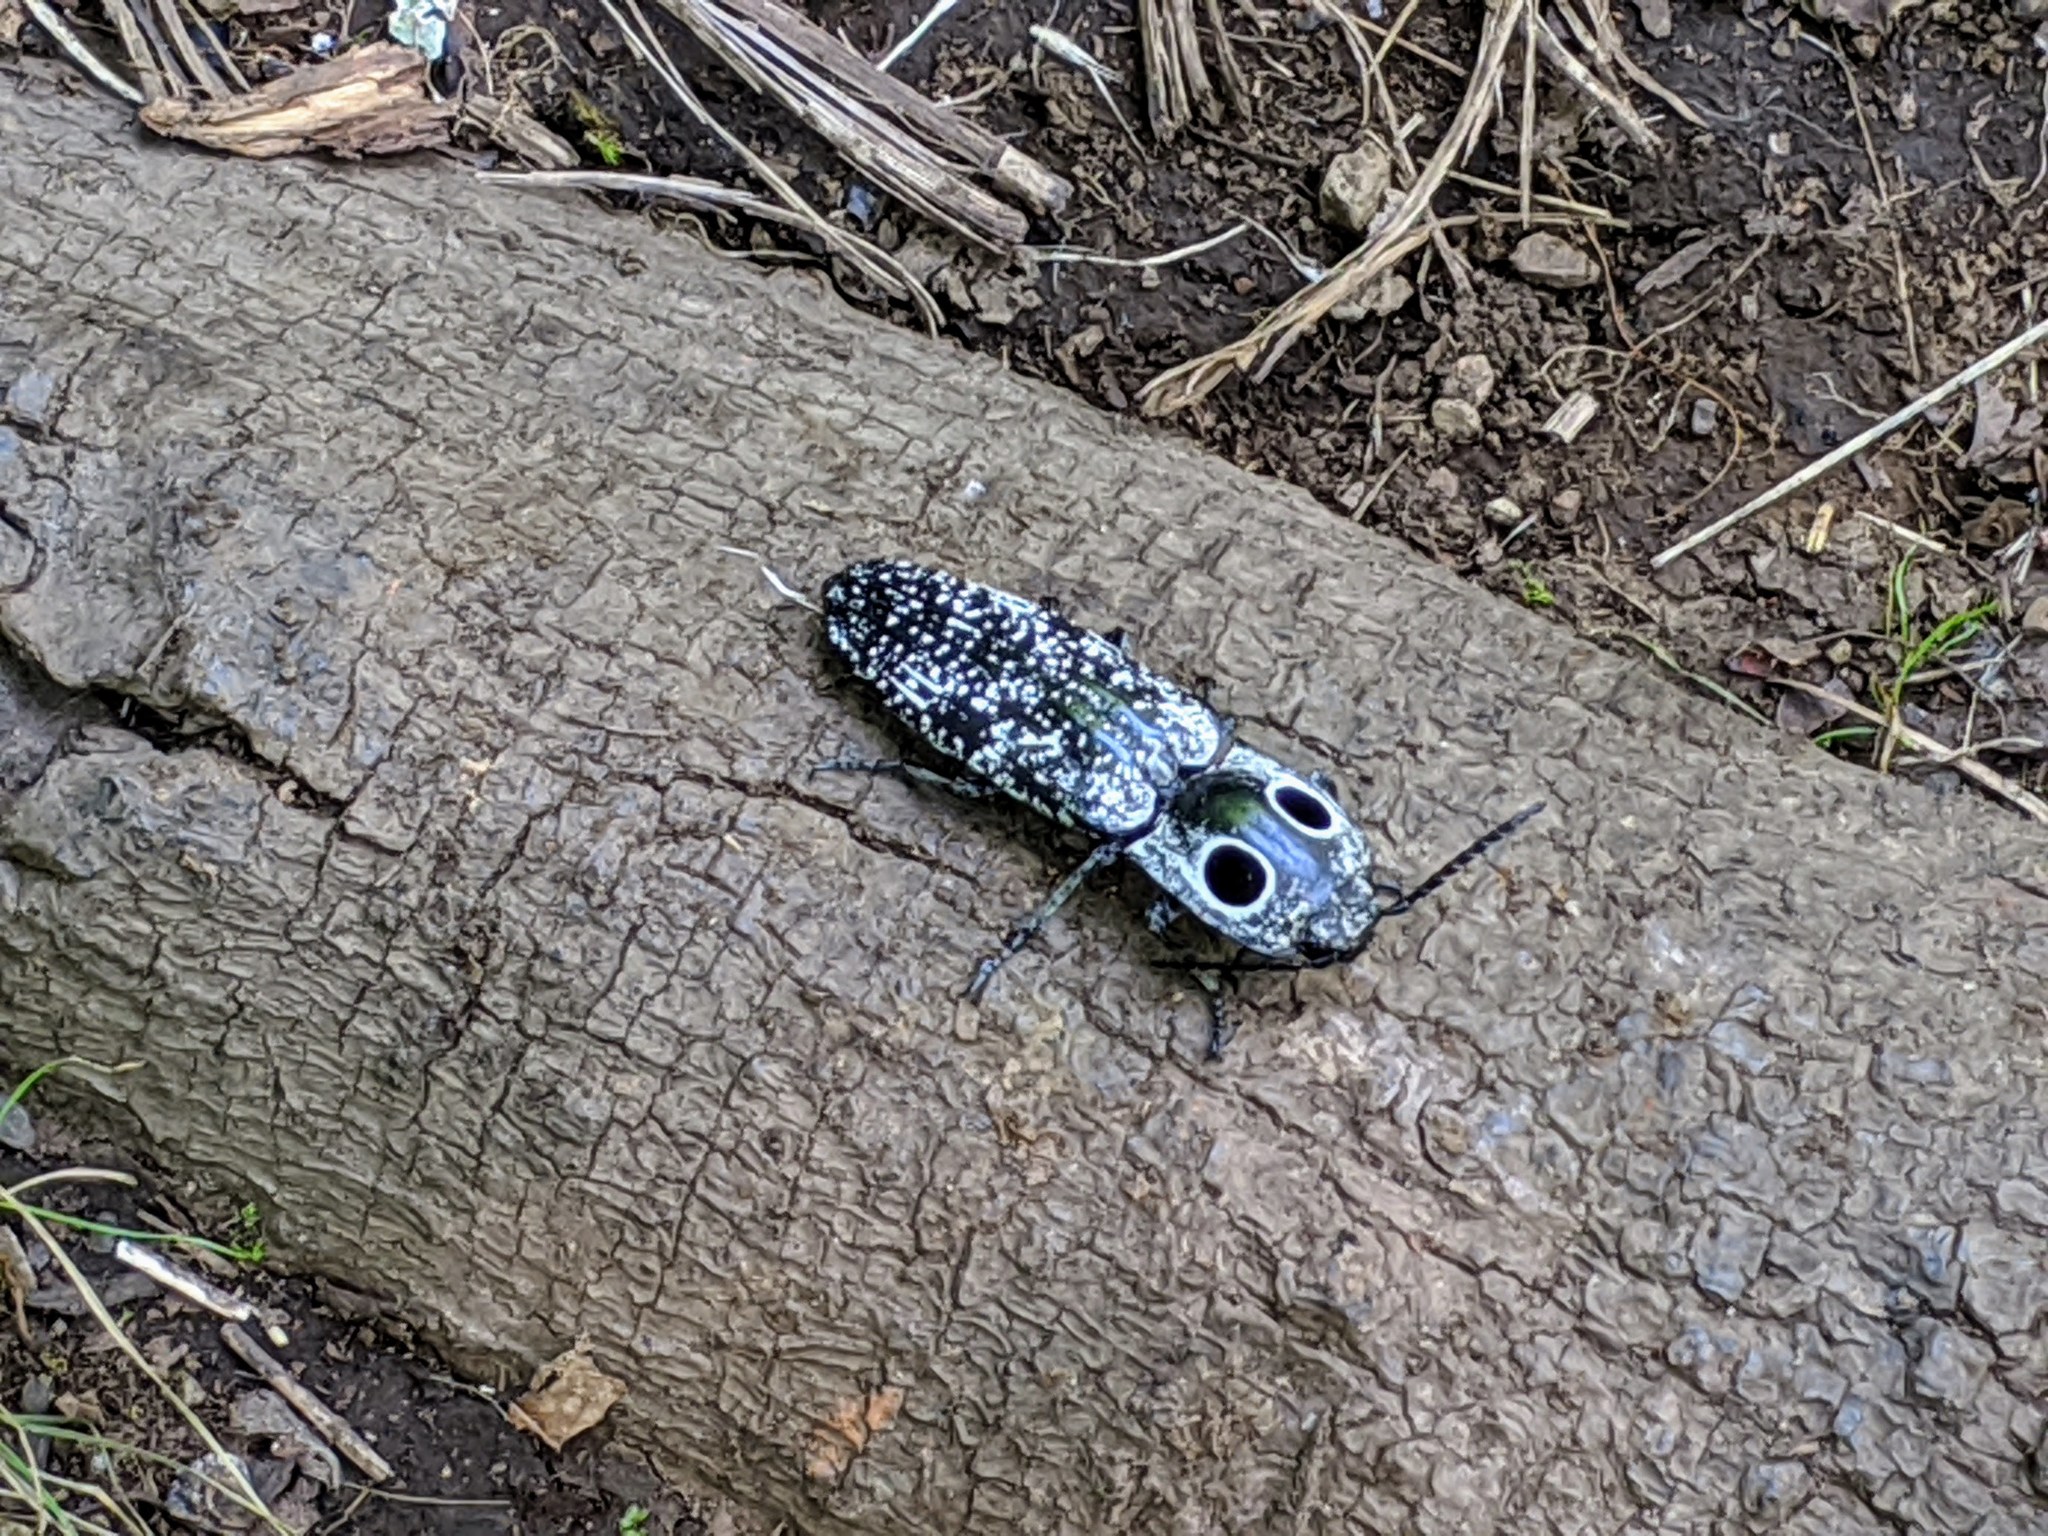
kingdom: Animalia
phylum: Arthropoda
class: Insecta
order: Coleoptera
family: Elateridae
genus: Alaus
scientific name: Alaus oculatus
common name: Eastern eyed click beetle
